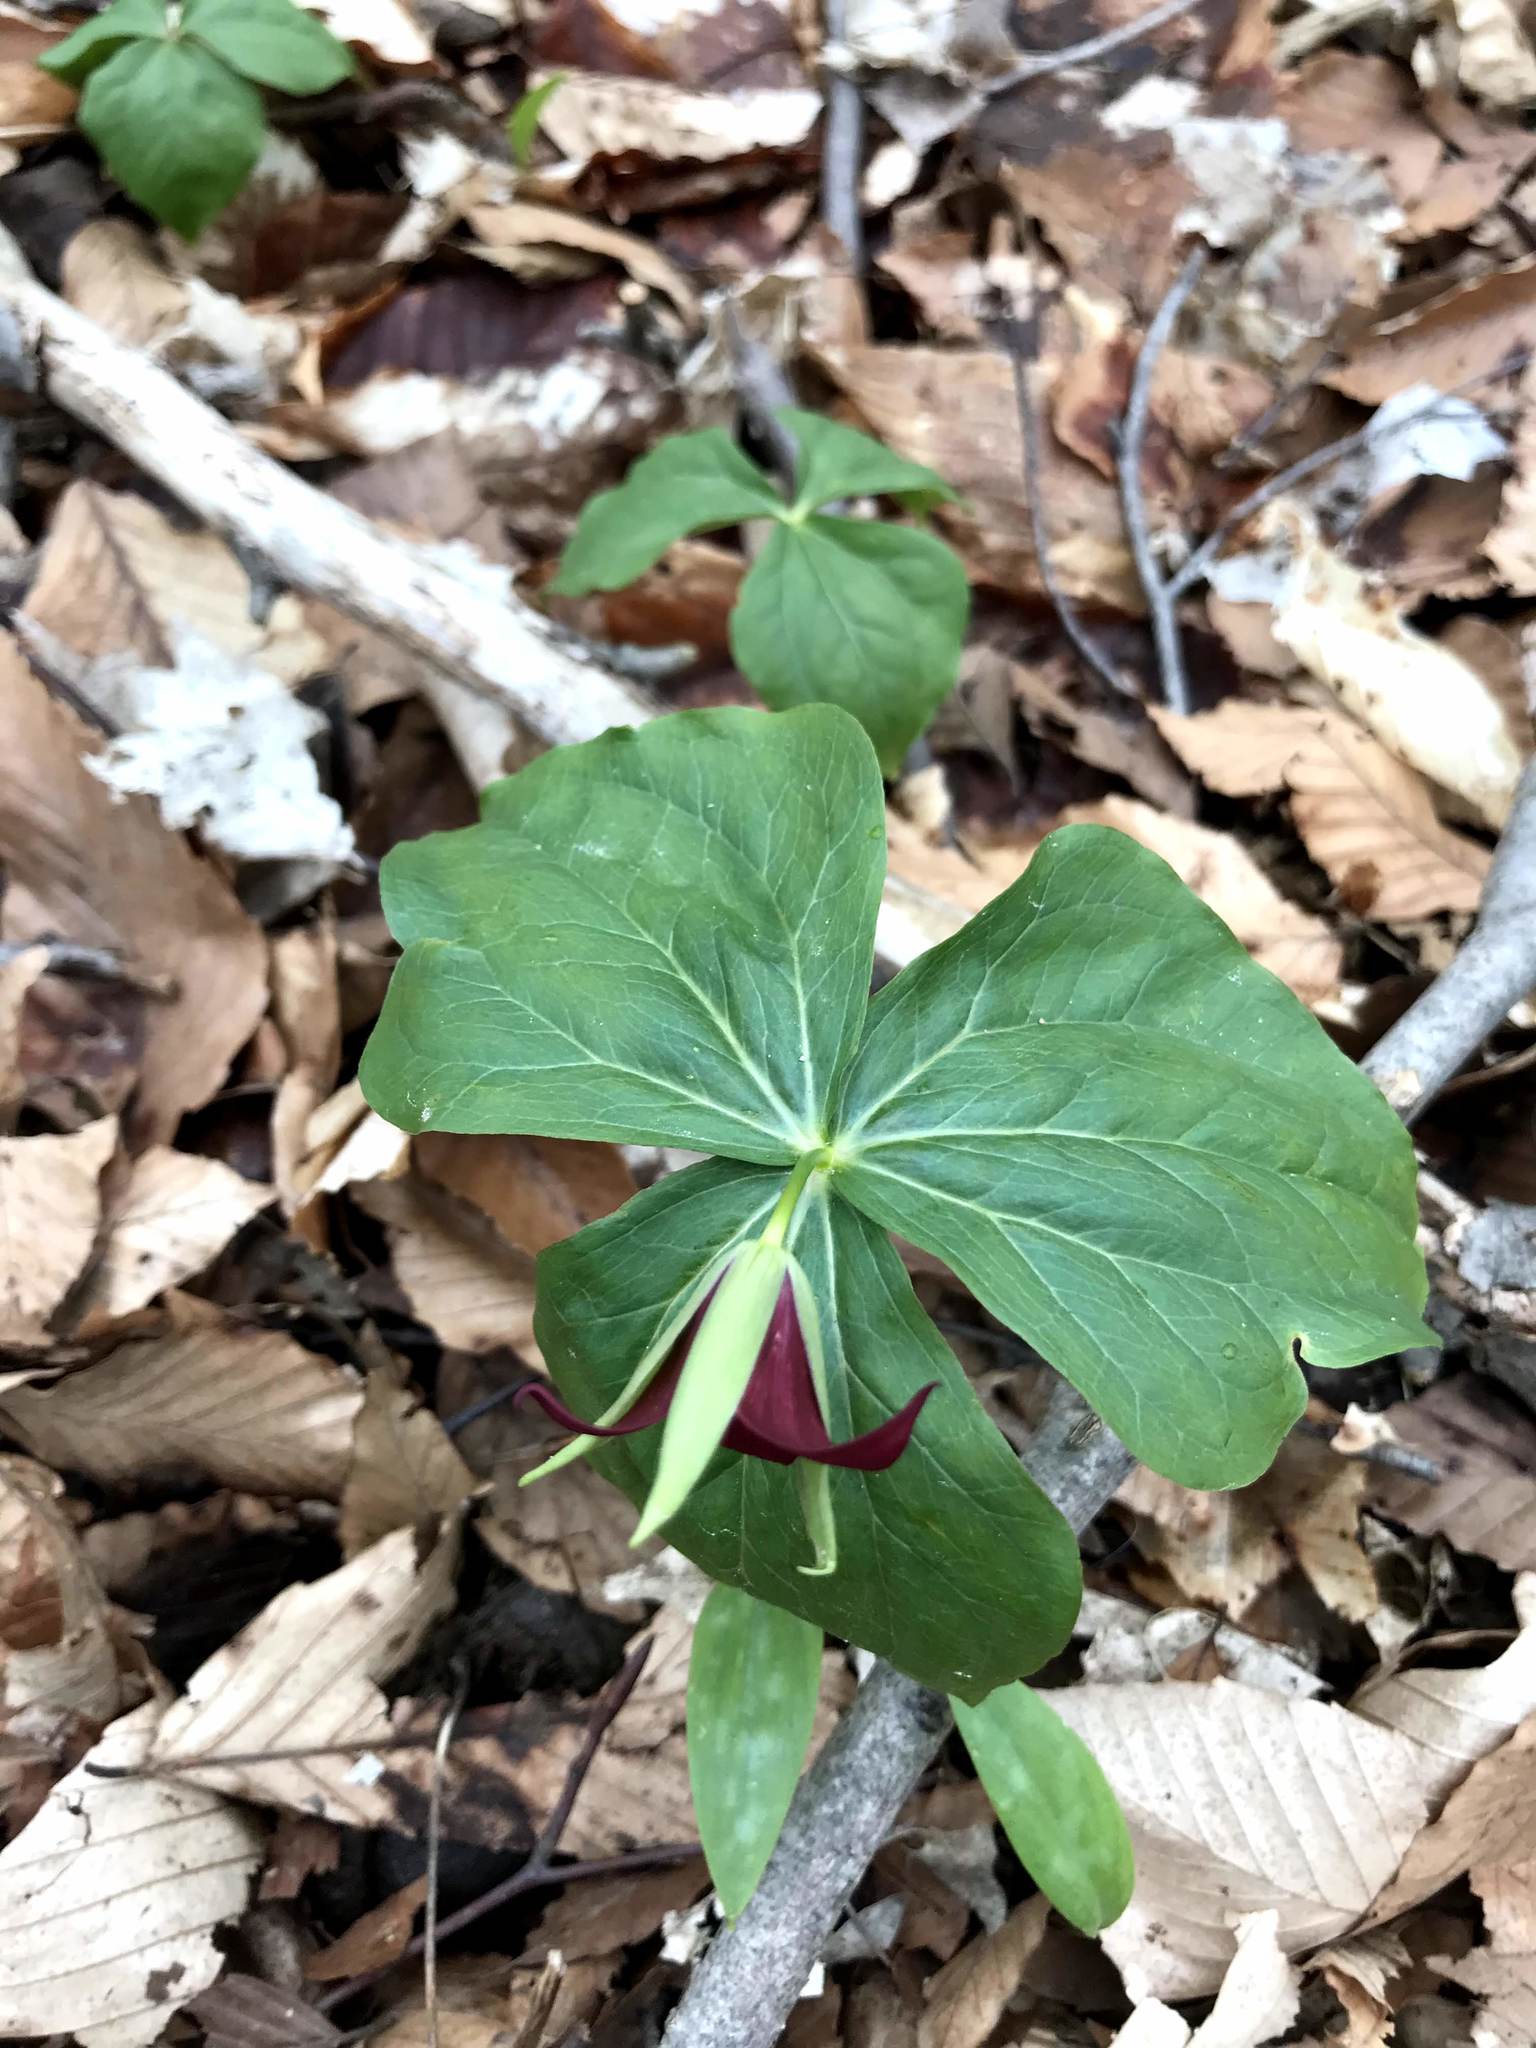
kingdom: Plantae
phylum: Tracheophyta
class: Liliopsida
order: Liliales
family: Melanthiaceae
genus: Trillium
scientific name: Trillium erectum
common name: Purple trillium
